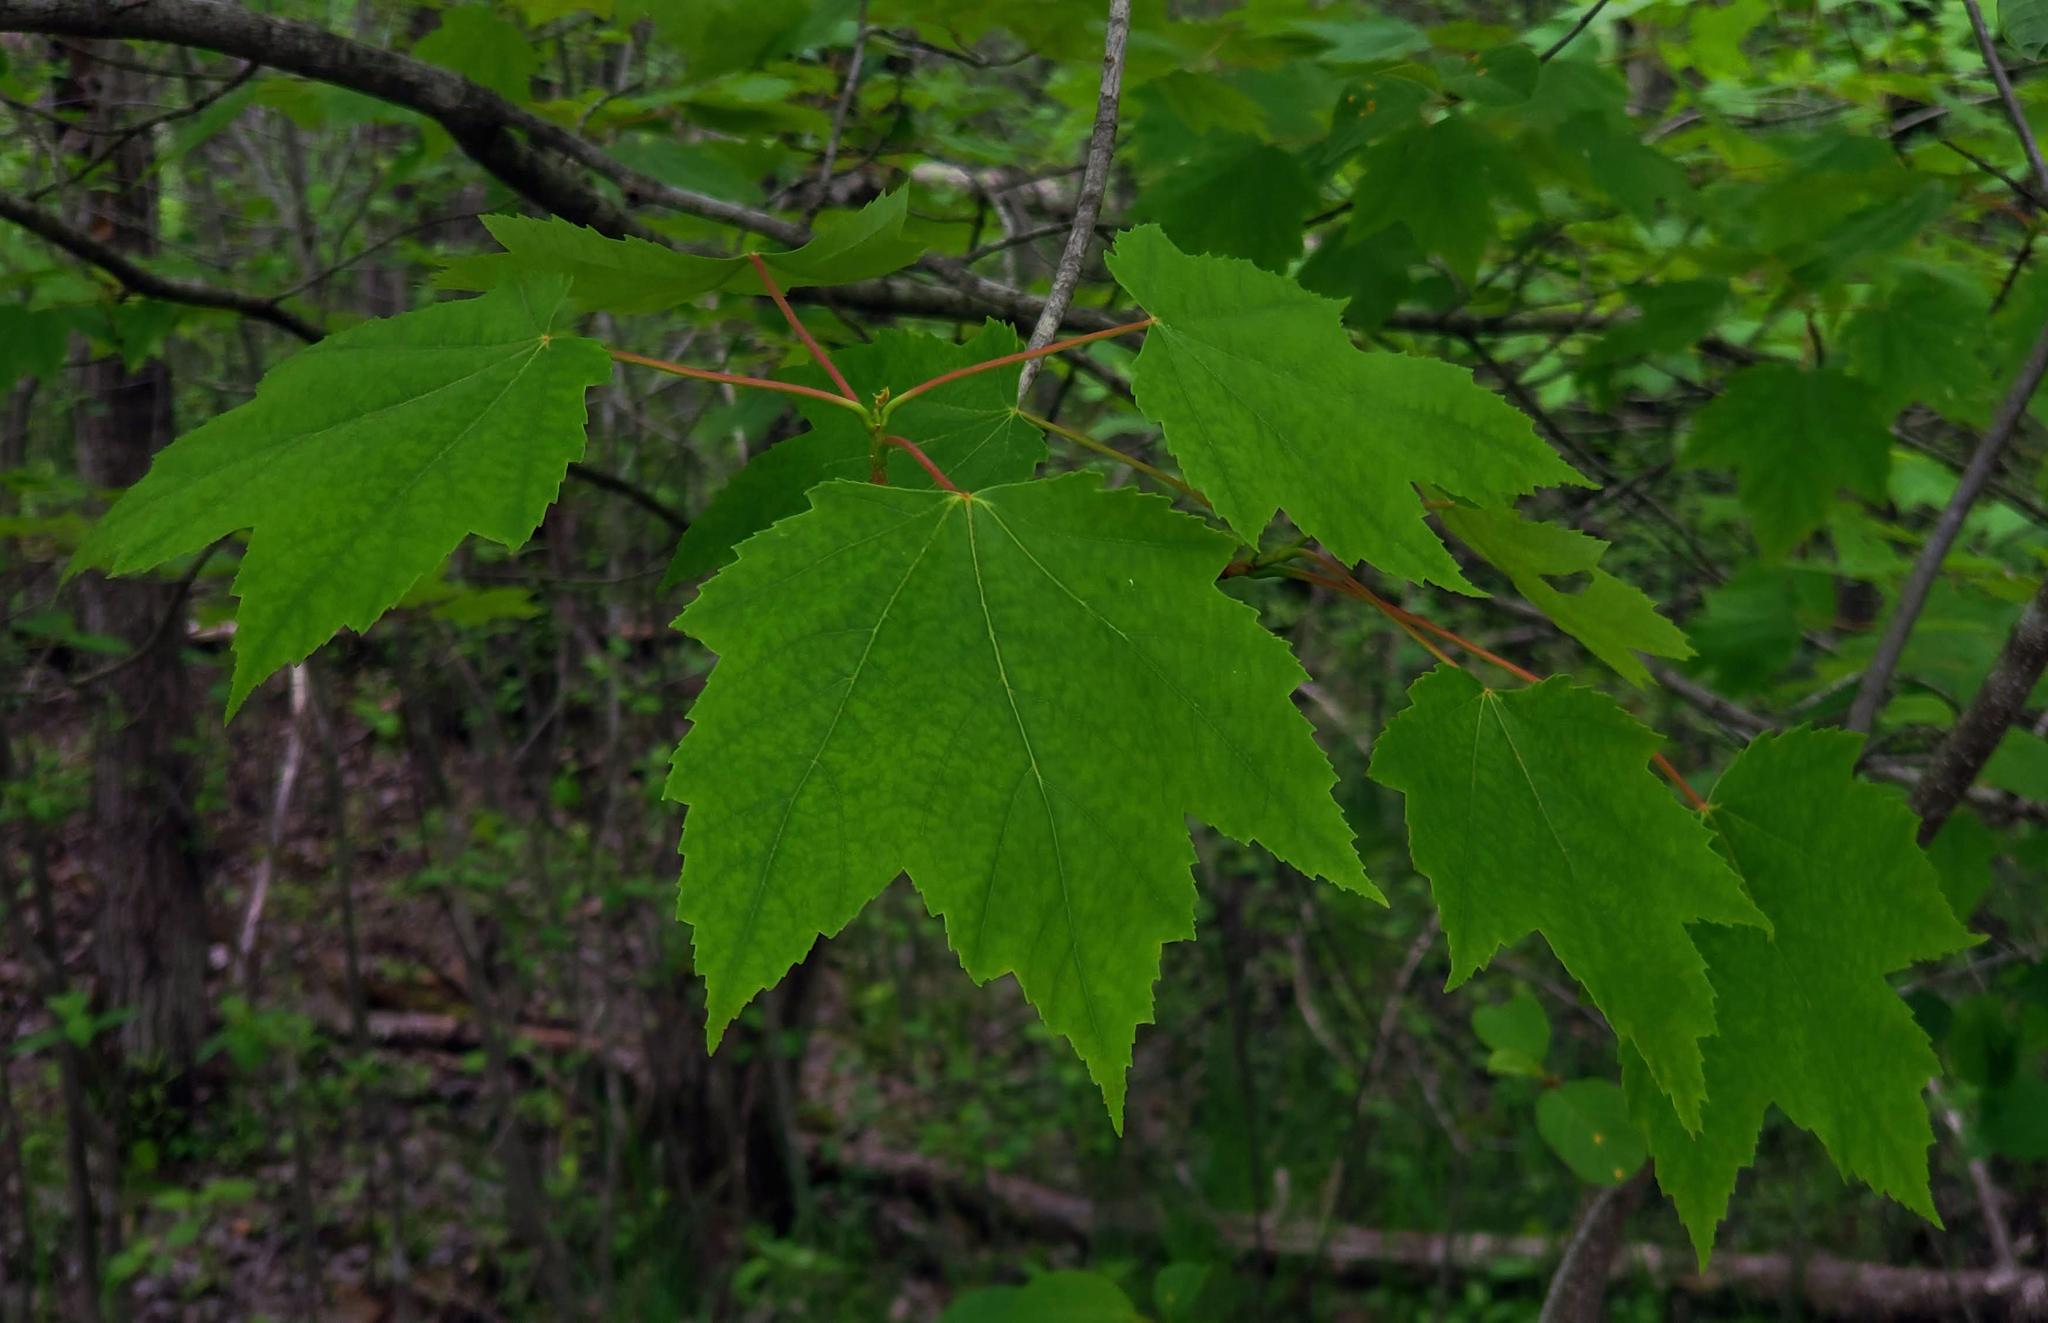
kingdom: Plantae
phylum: Tracheophyta
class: Magnoliopsida
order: Sapindales
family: Sapindaceae
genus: Acer
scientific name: Acer rubrum
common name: Red maple
